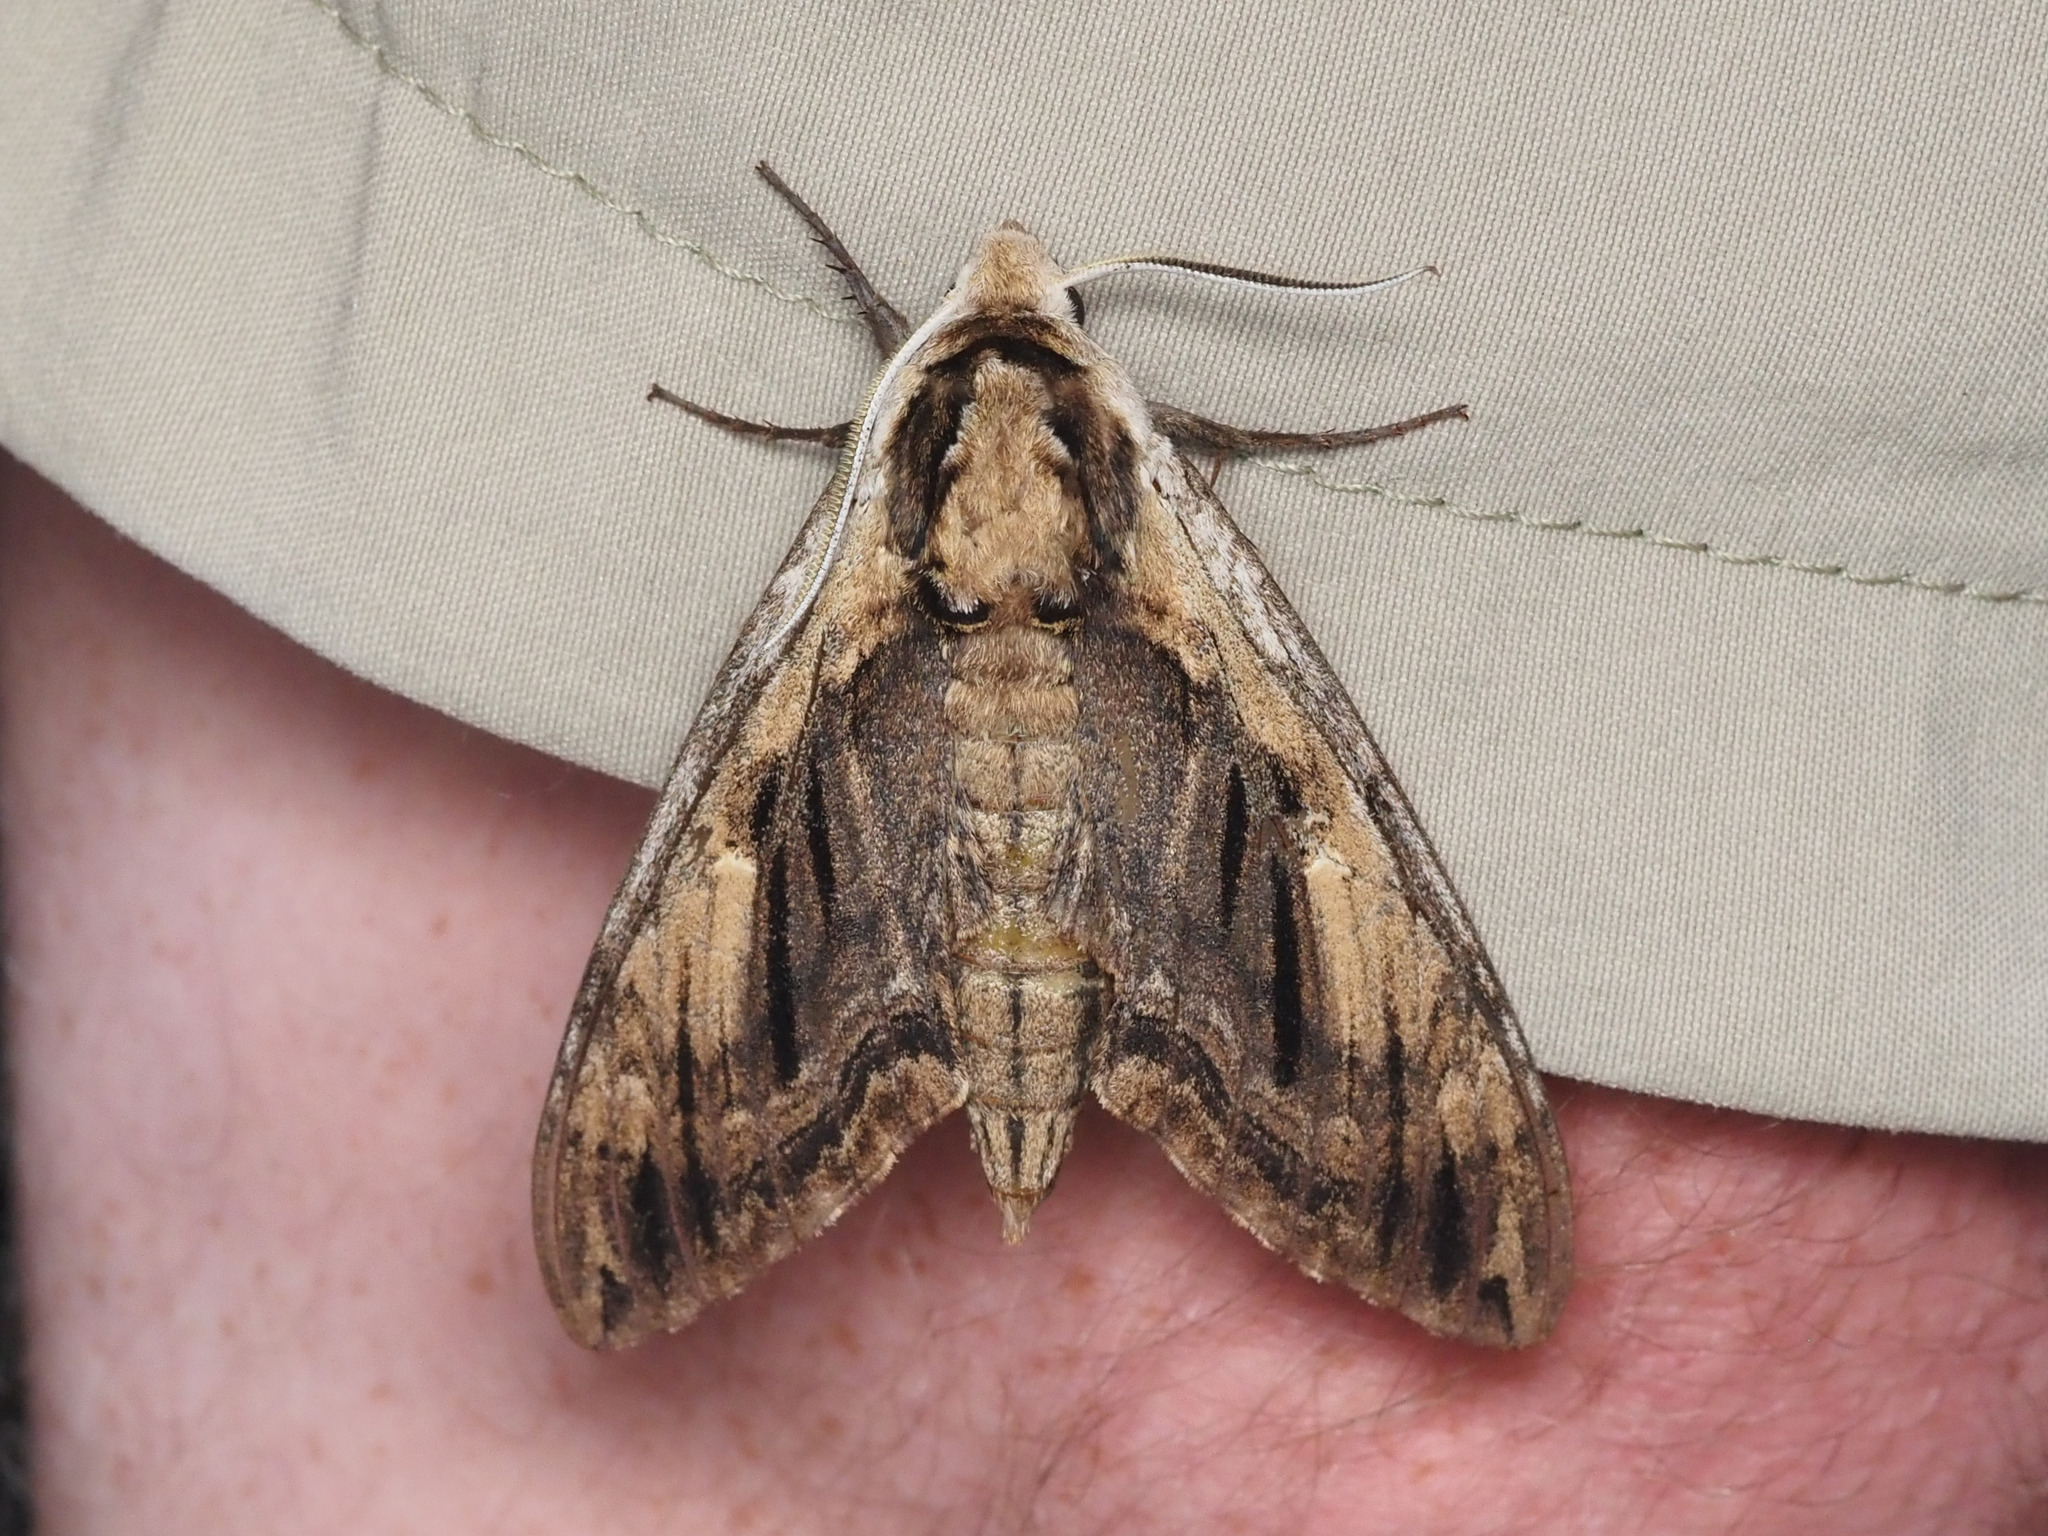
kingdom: Animalia
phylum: Arthropoda
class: Insecta
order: Lepidoptera
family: Sphingidae
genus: Ceratomia
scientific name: Ceratomia amyntor
